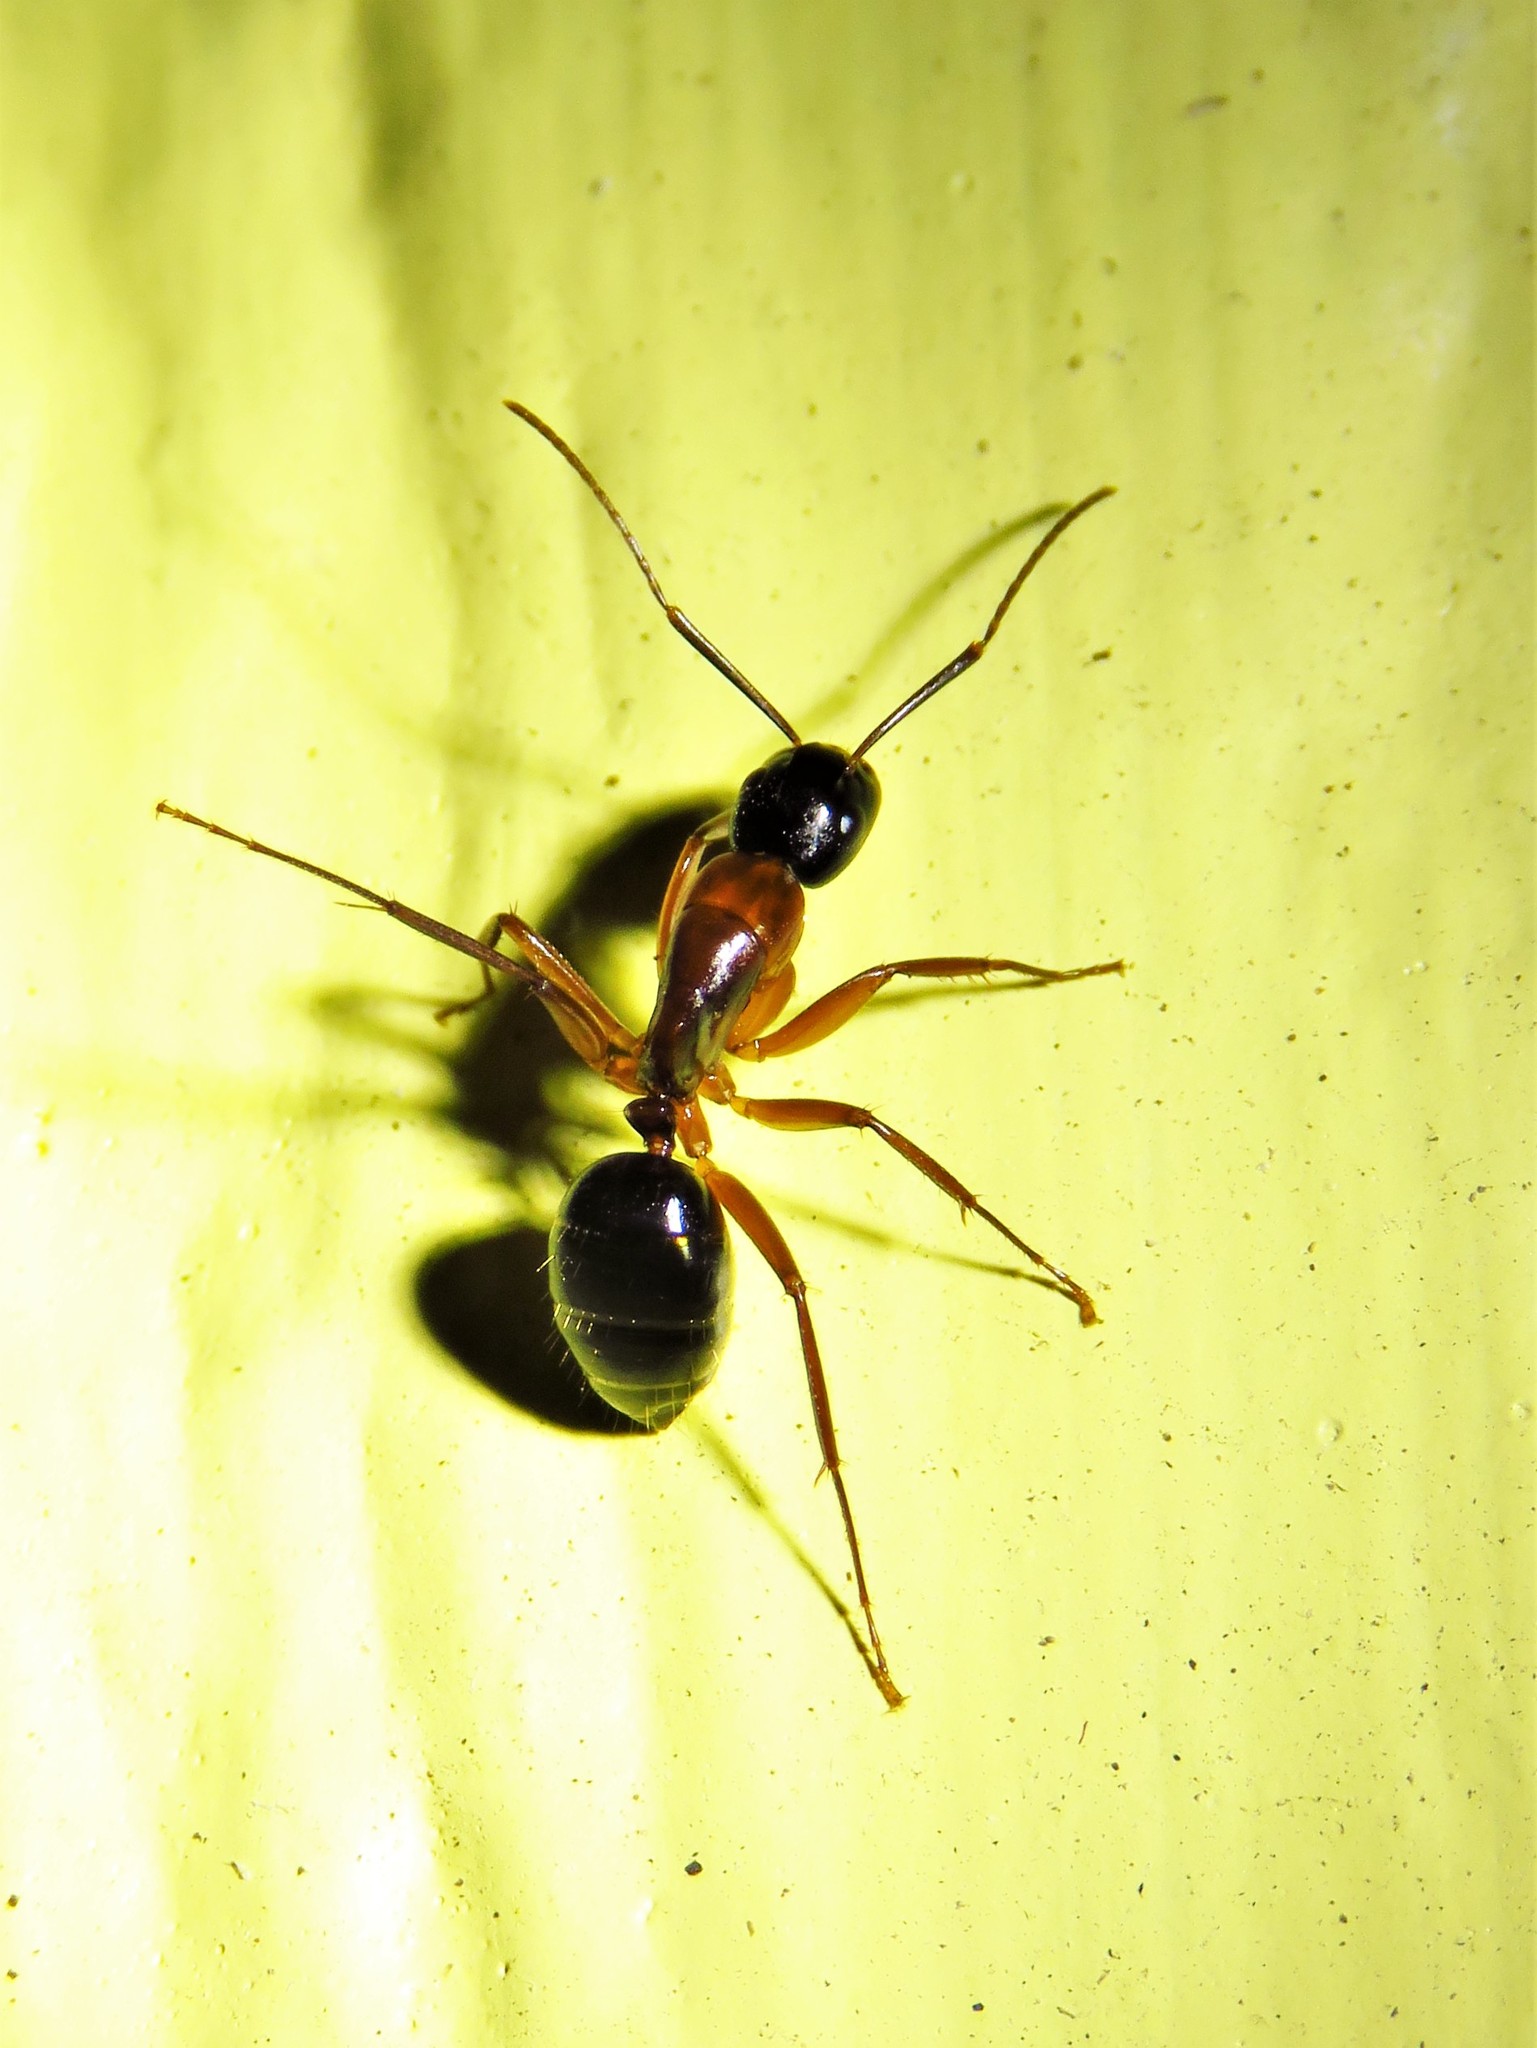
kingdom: Animalia
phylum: Arthropoda
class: Insecta
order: Hymenoptera
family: Formicidae
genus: Camponotus
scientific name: Camponotus texanus
